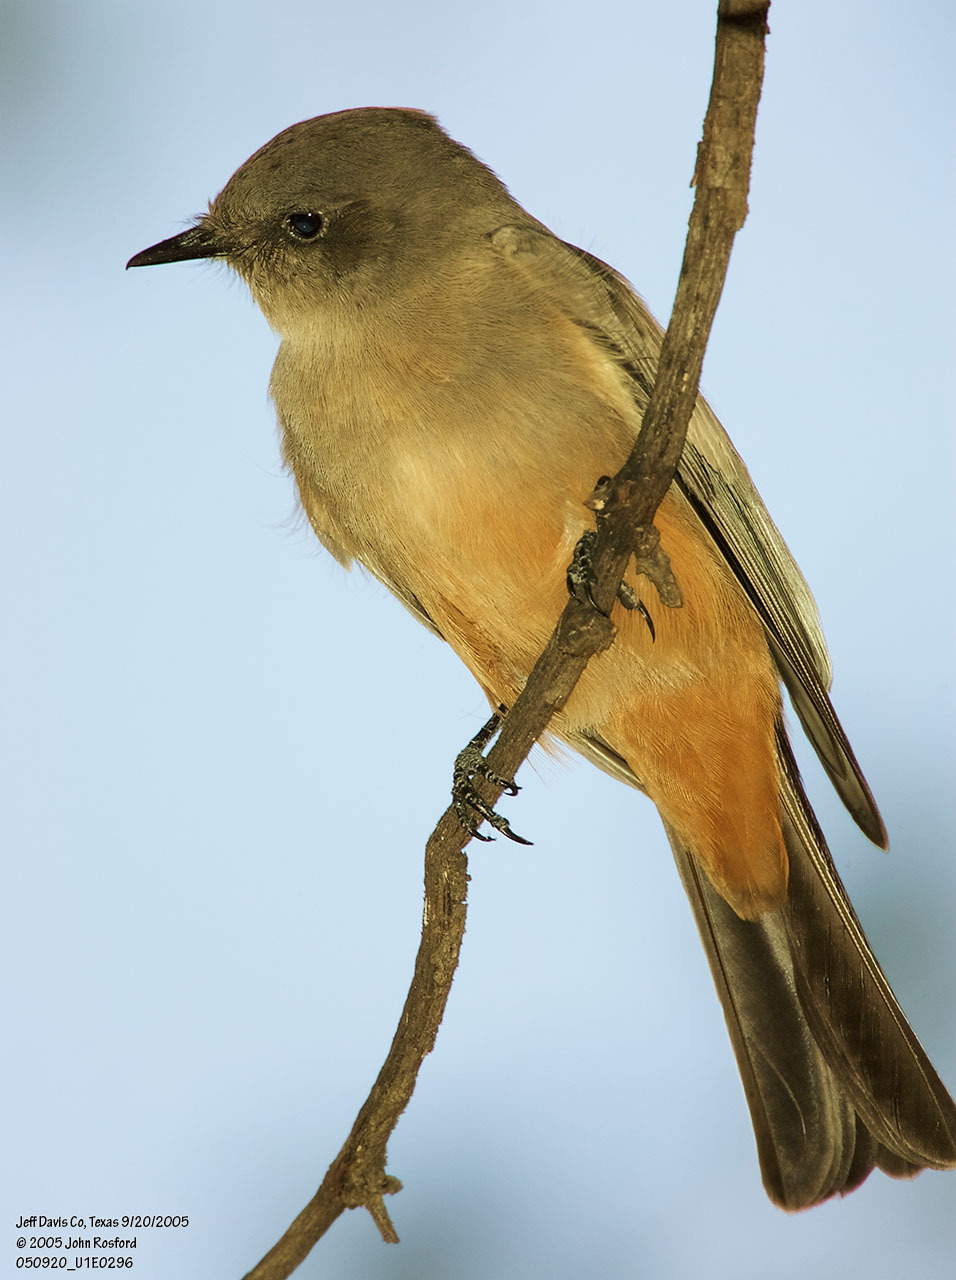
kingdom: Animalia
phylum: Chordata
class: Aves
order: Passeriformes
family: Tyrannidae
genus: Sayornis
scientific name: Sayornis saya
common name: Say's phoebe
